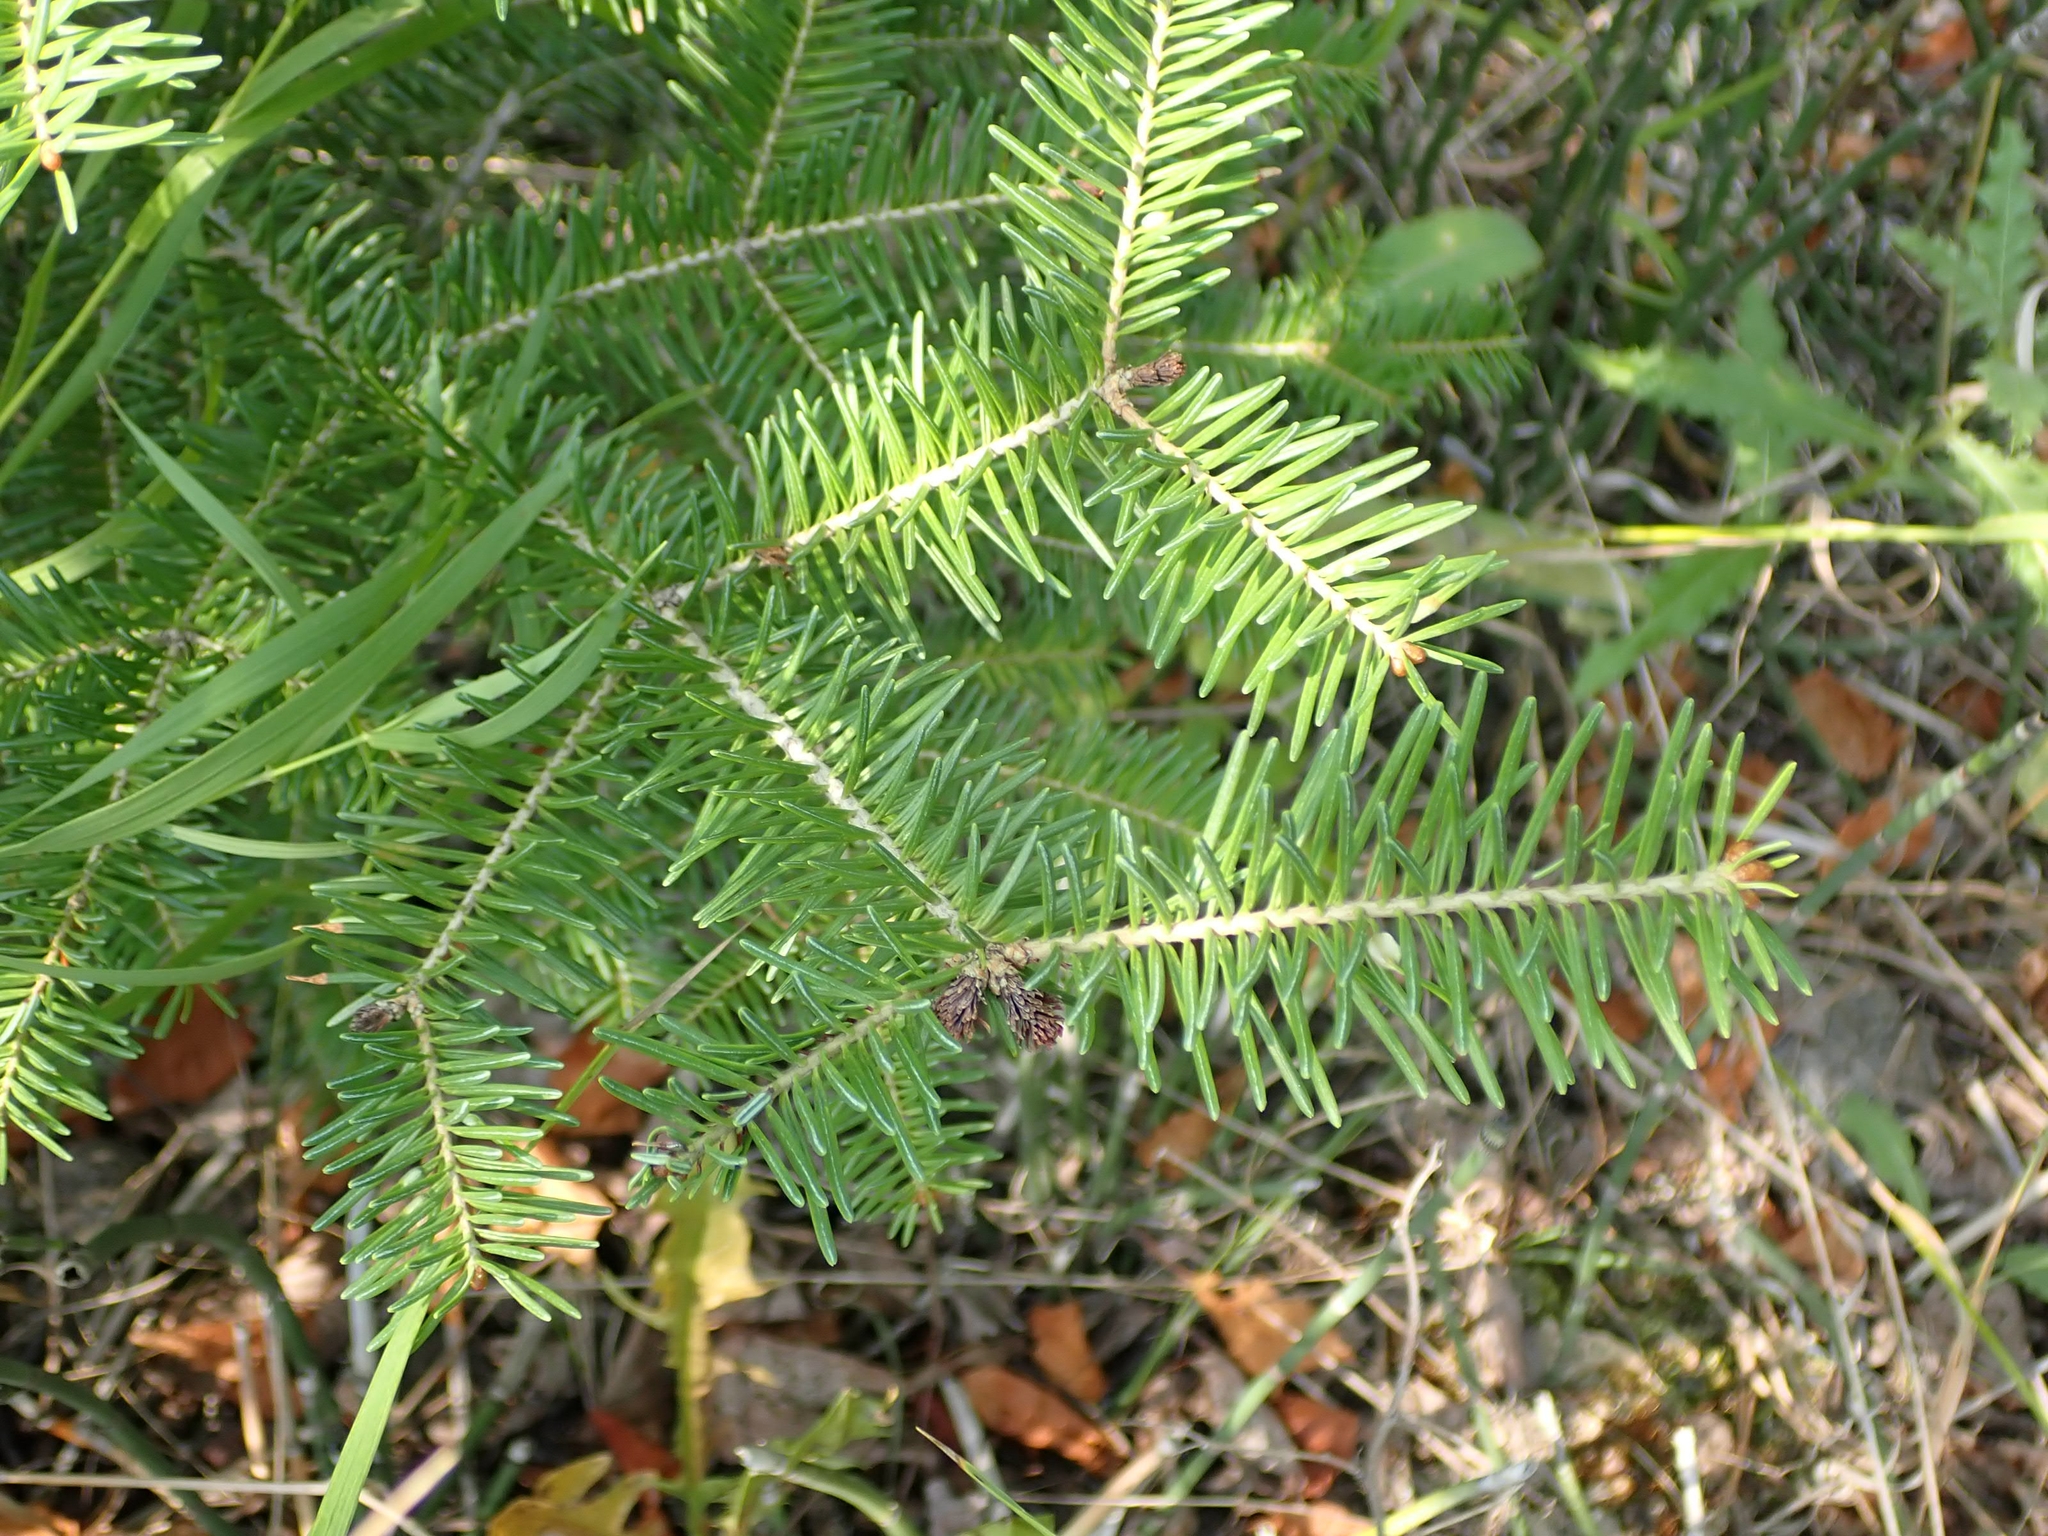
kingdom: Plantae
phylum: Tracheophyta
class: Pinopsida
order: Pinales
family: Pinaceae
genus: Abies
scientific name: Abies balsamea
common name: Balsam fir
